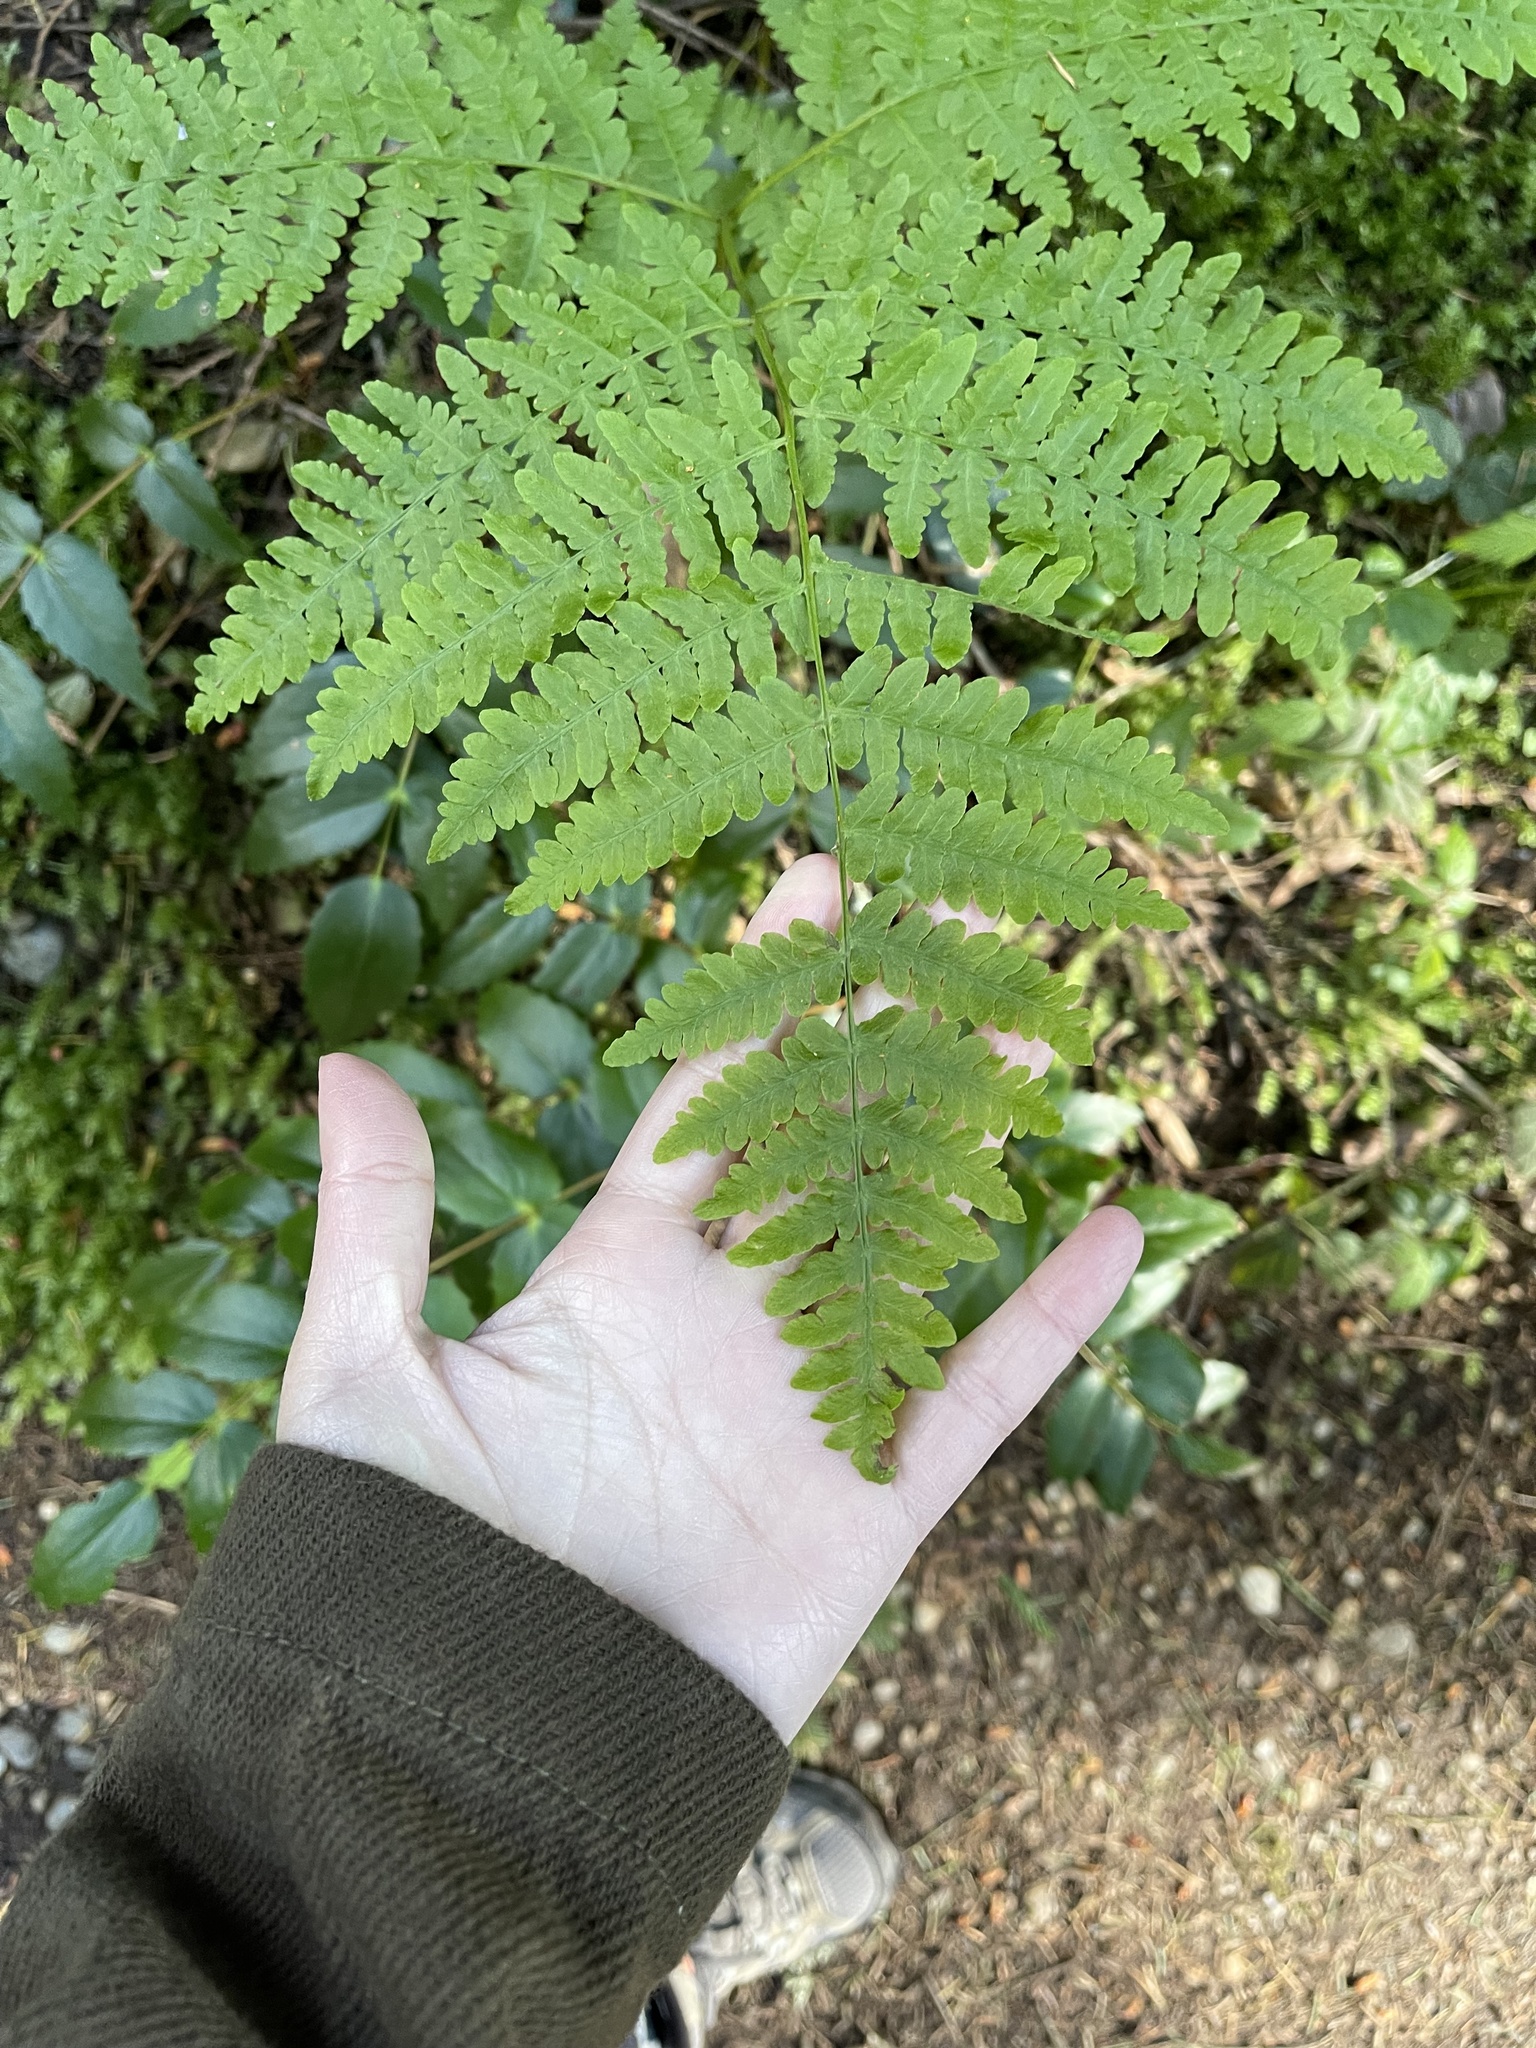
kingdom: Plantae
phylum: Tracheophyta
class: Polypodiopsida
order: Polypodiales
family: Athyriaceae
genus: Athyrium
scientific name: Athyrium filix-femina
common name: Lady fern
